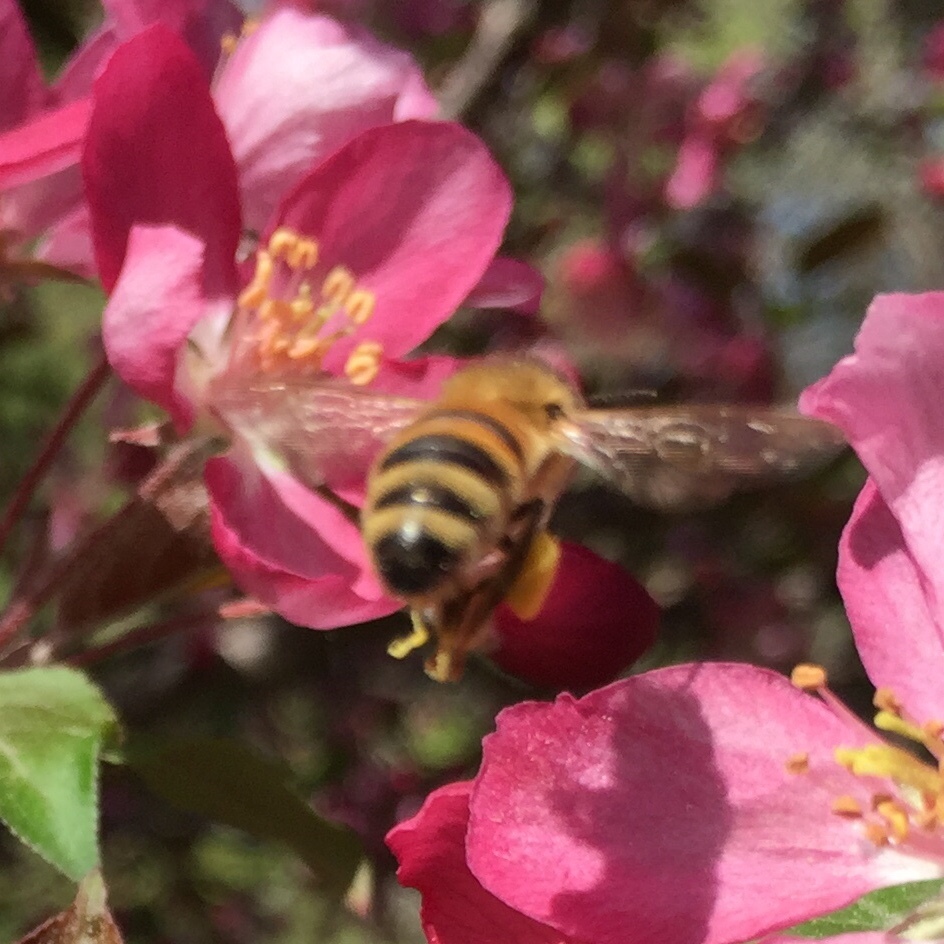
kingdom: Animalia
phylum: Arthropoda
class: Insecta
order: Hymenoptera
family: Apidae
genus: Apis
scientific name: Apis mellifera
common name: Honey bee
